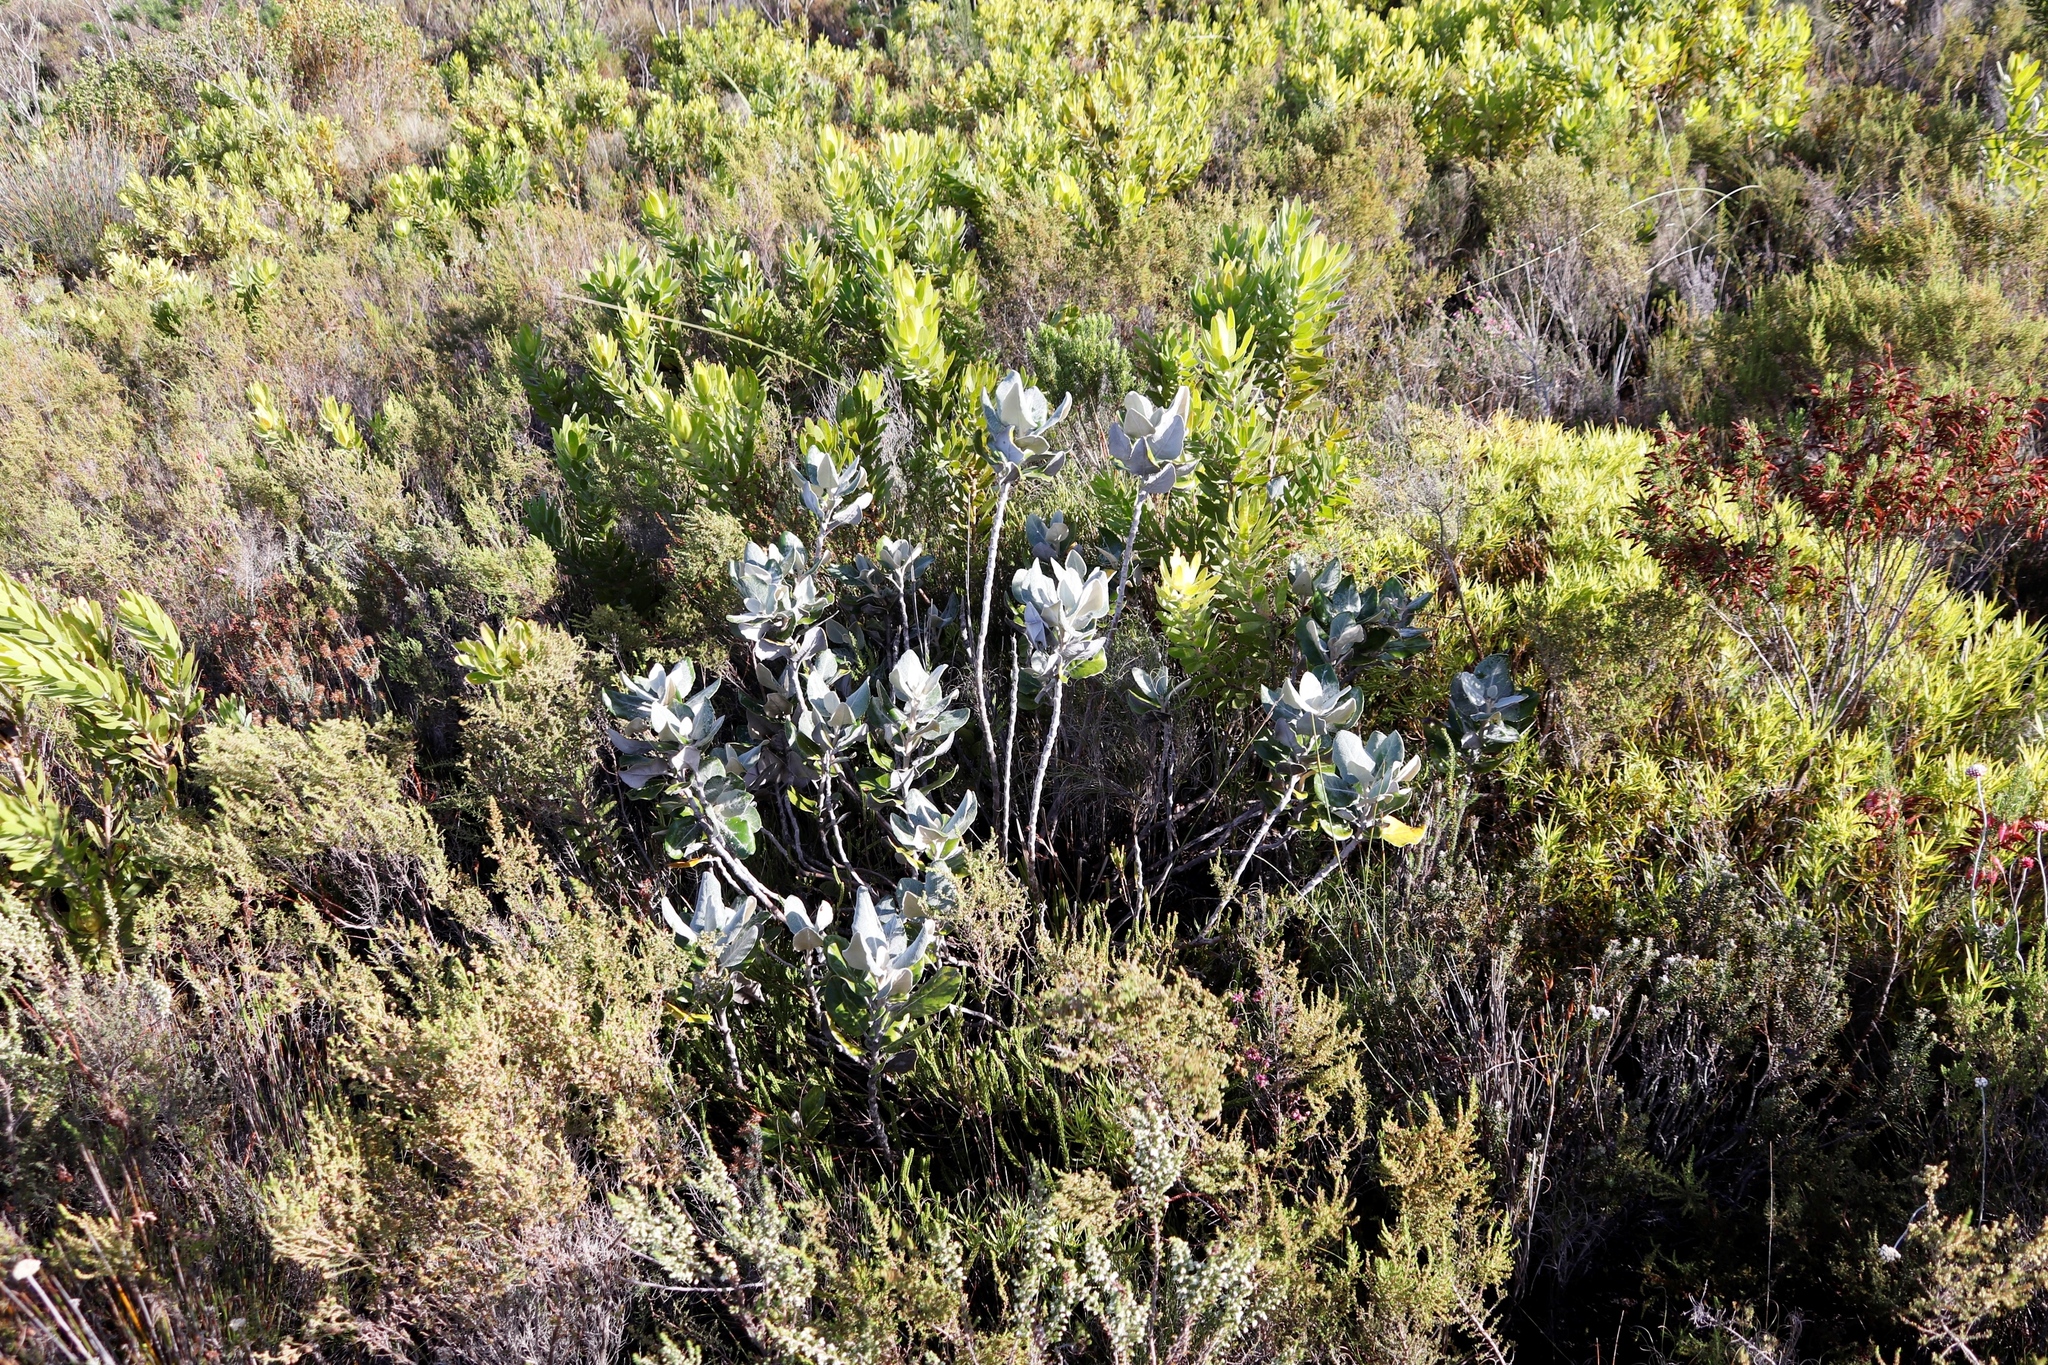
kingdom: Plantae
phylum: Tracheophyta
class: Magnoliopsida
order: Asterales
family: Asteraceae
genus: Capelio
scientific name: Capelio tabularis
